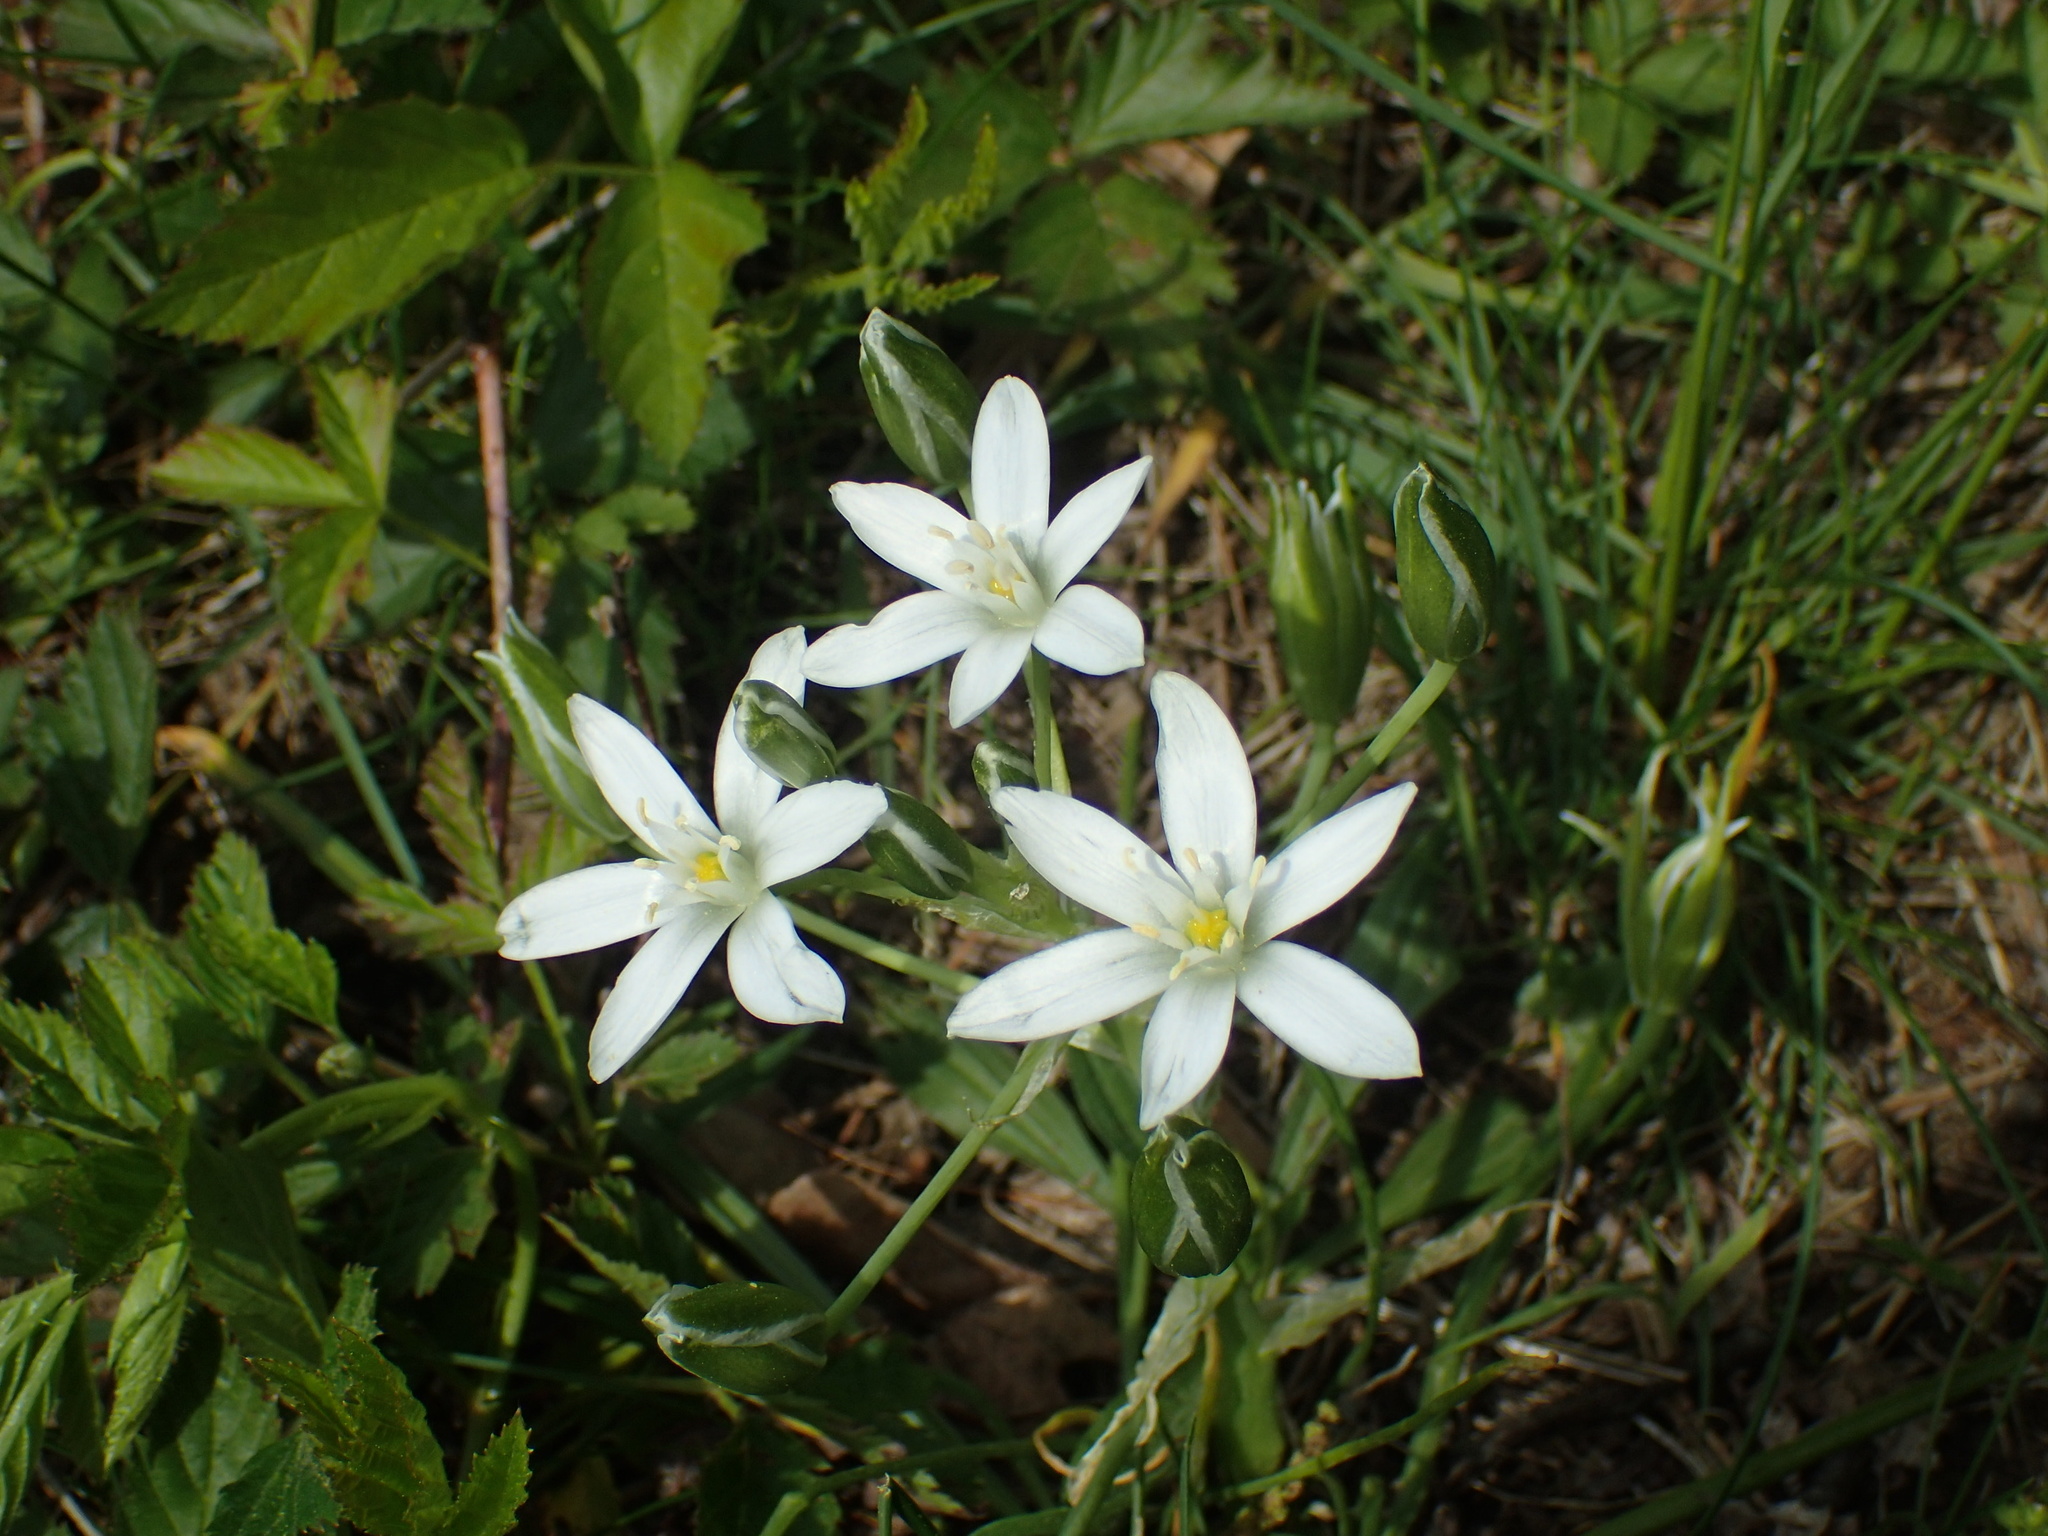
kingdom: Plantae
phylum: Tracheophyta
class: Liliopsida
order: Asparagales
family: Asparagaceae
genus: Ornithogalum
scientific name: Ornithogalum umbellatum
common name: Garden star-of-bethlehem
